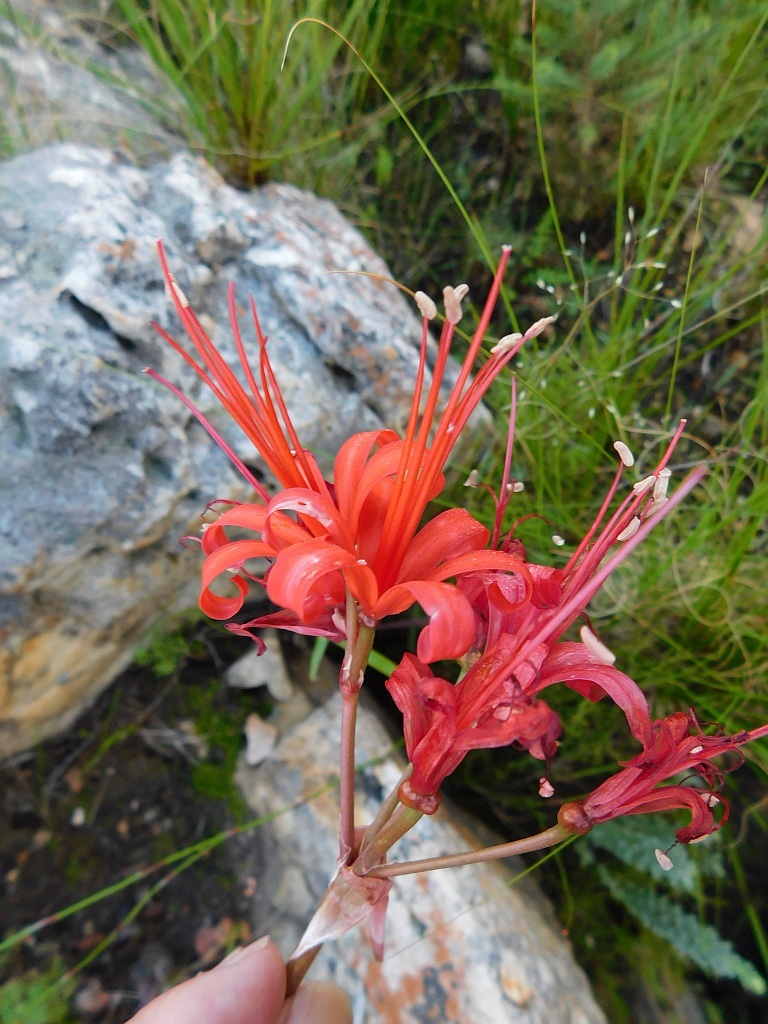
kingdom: Plantae
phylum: Tracheophyta
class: Liliopsida
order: Asparagales
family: Amaryllidaceae
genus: Nerine
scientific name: Nerine sarniensis
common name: Guernsey-lily
